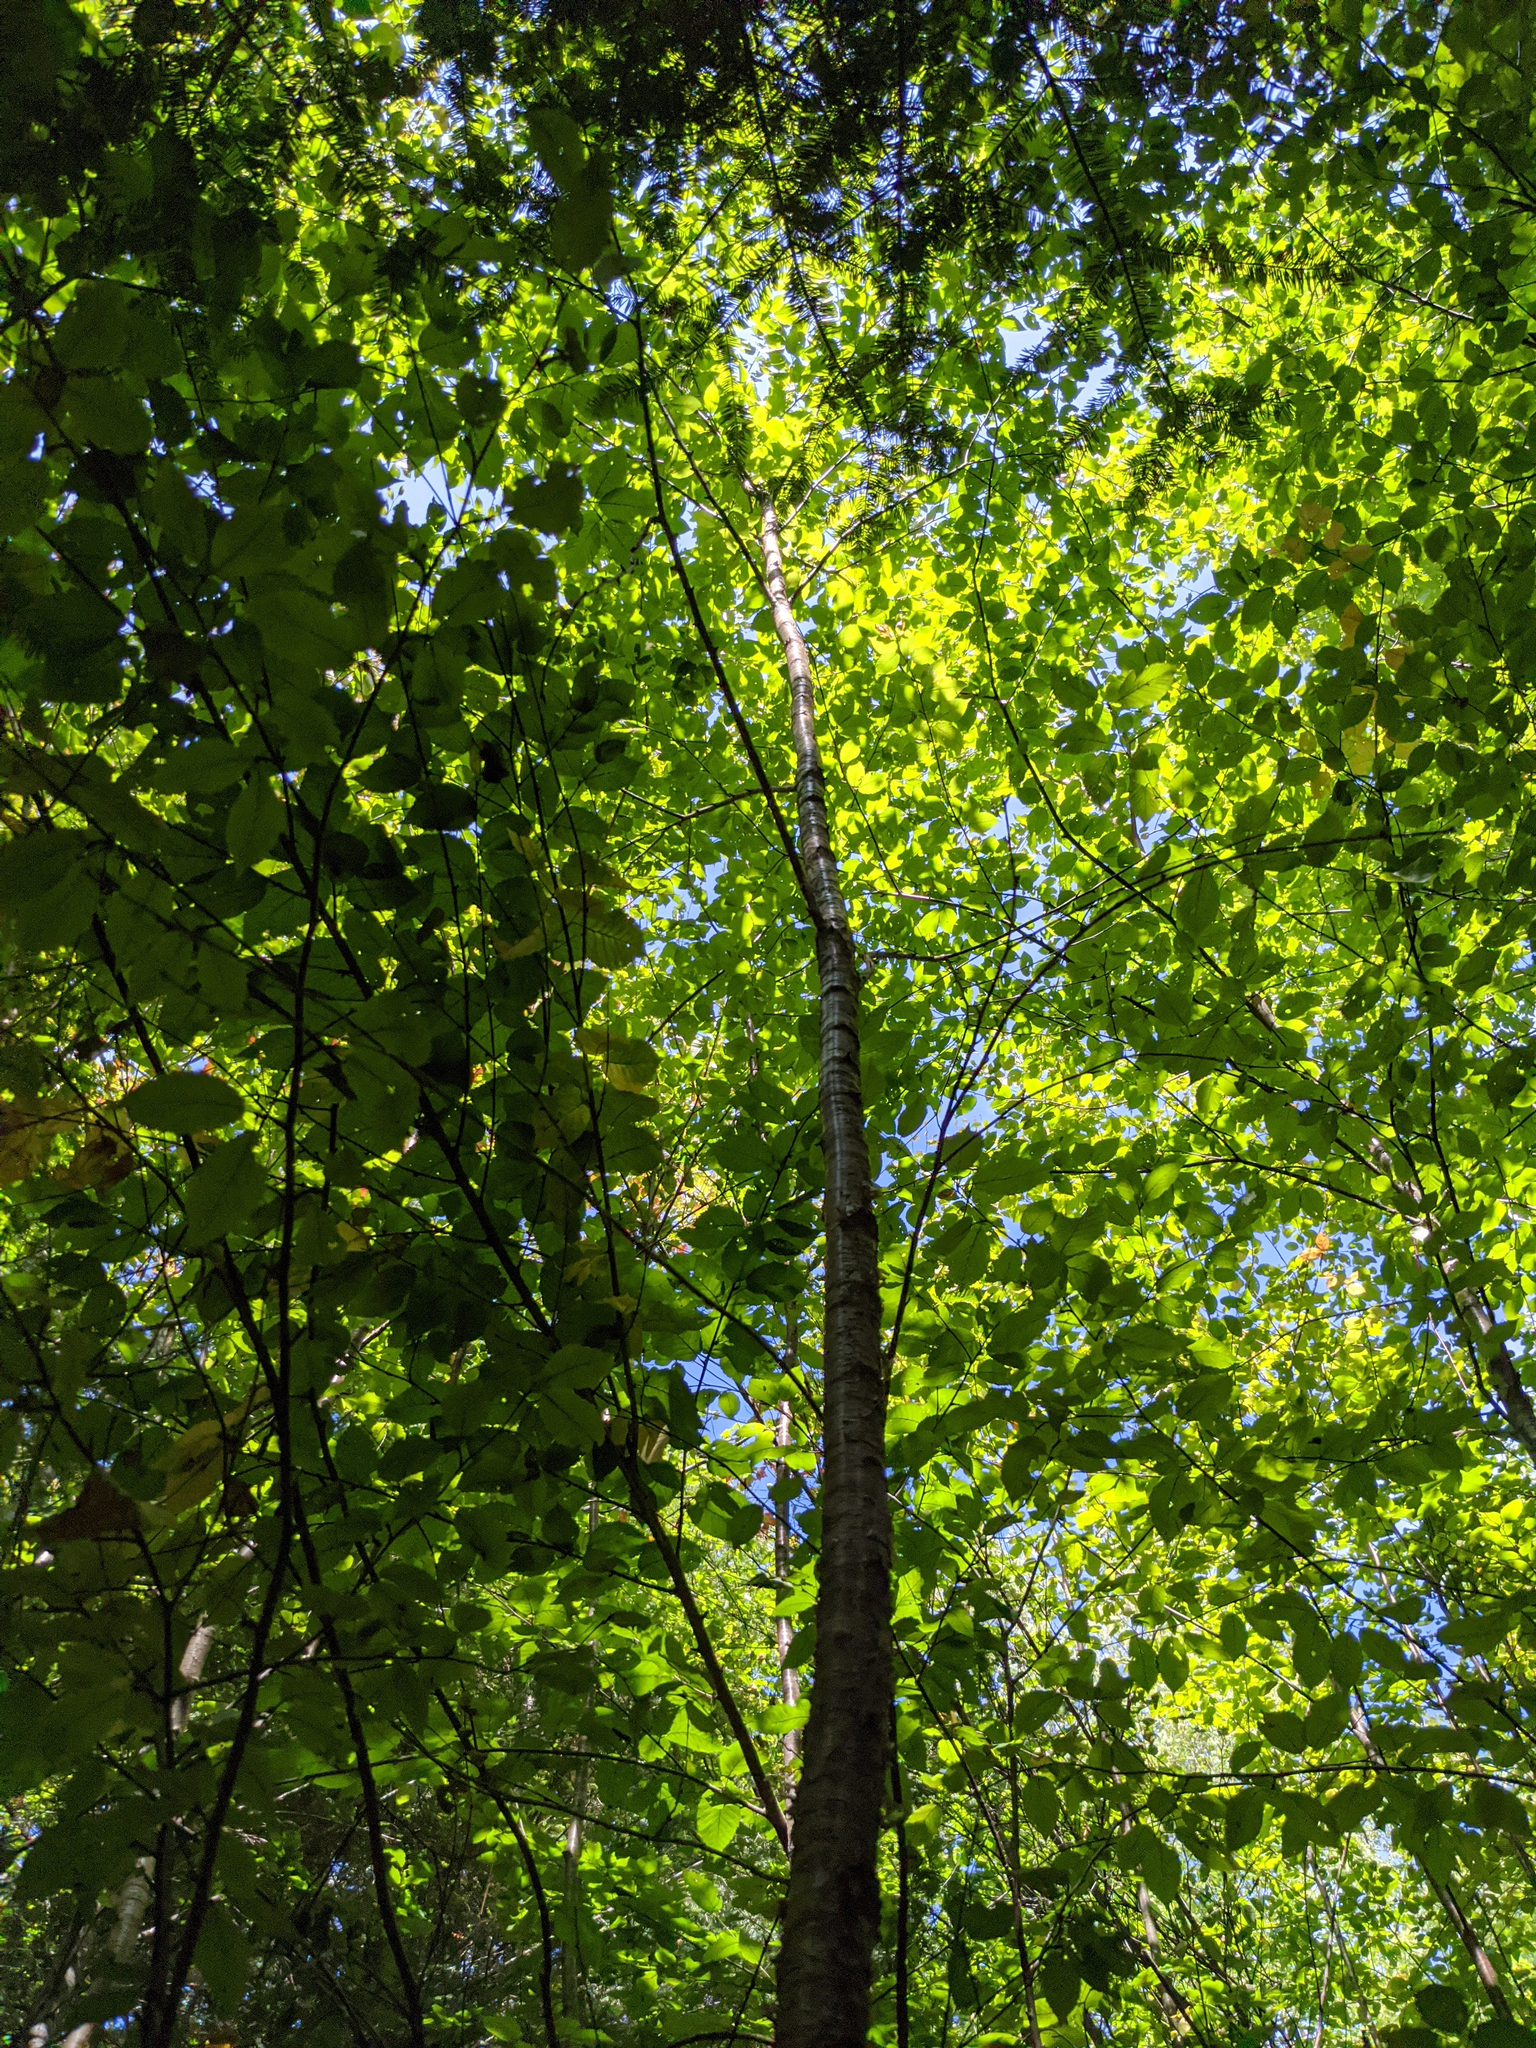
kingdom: Plantae
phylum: Tracheophyta
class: Magnoliopsida
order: Fagales
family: Betulaceae
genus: Betula
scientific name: Betula alleghaniensis
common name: Yellow birch
